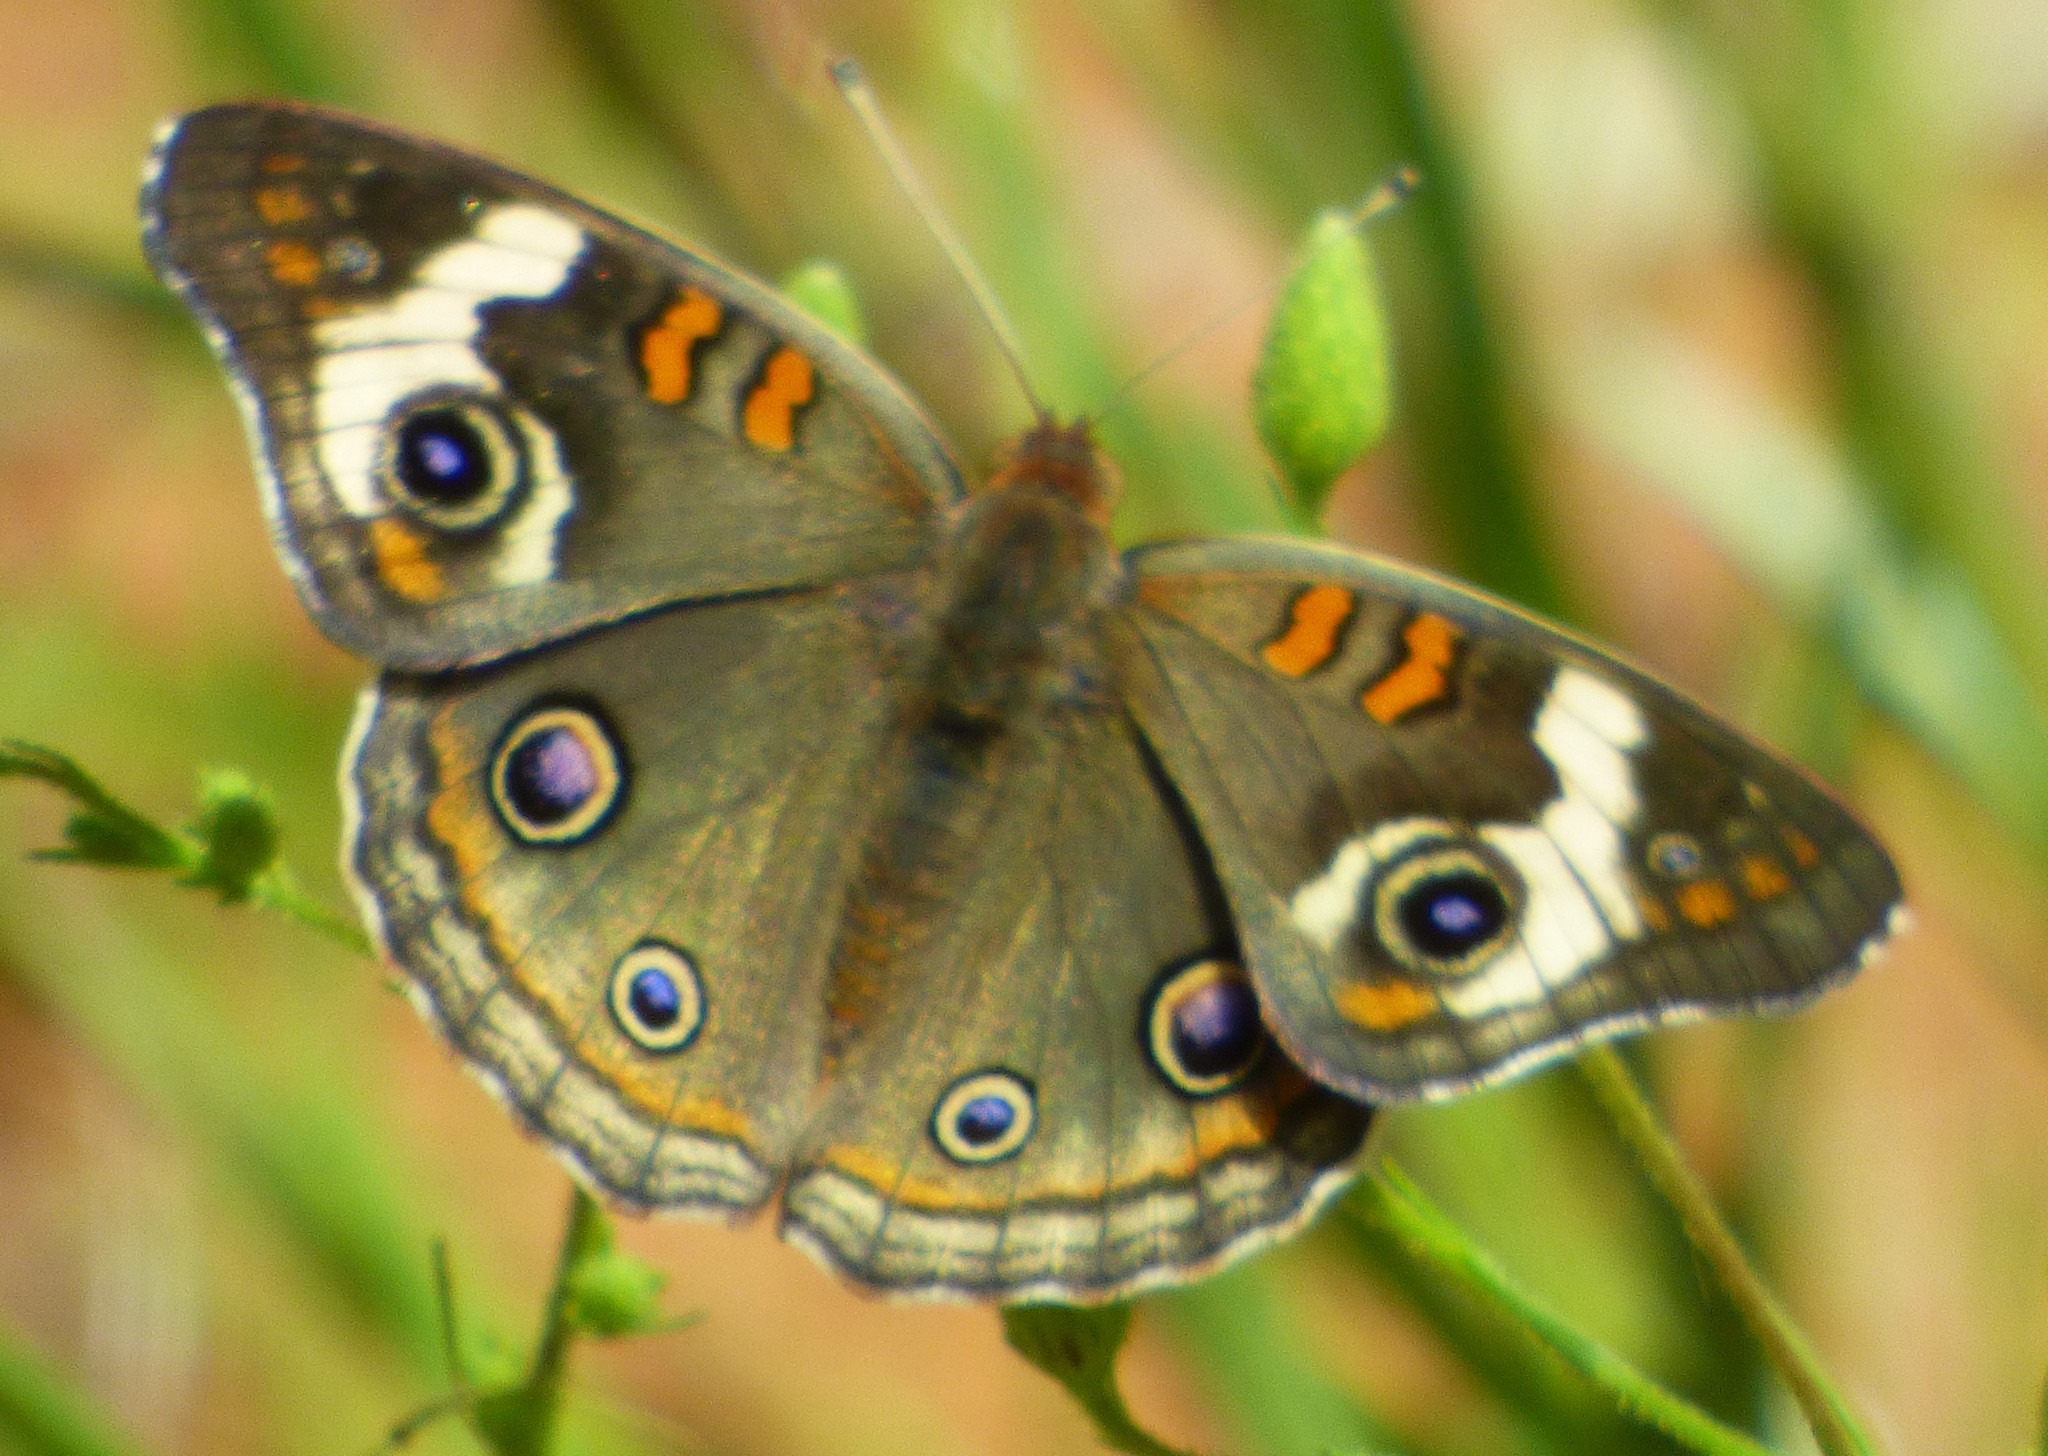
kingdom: Animalia
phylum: Arthropoda
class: Insecta
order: Lepidoptera
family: Nymphalidae
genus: Junonia
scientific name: Junonia coenia
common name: Common buckeye
